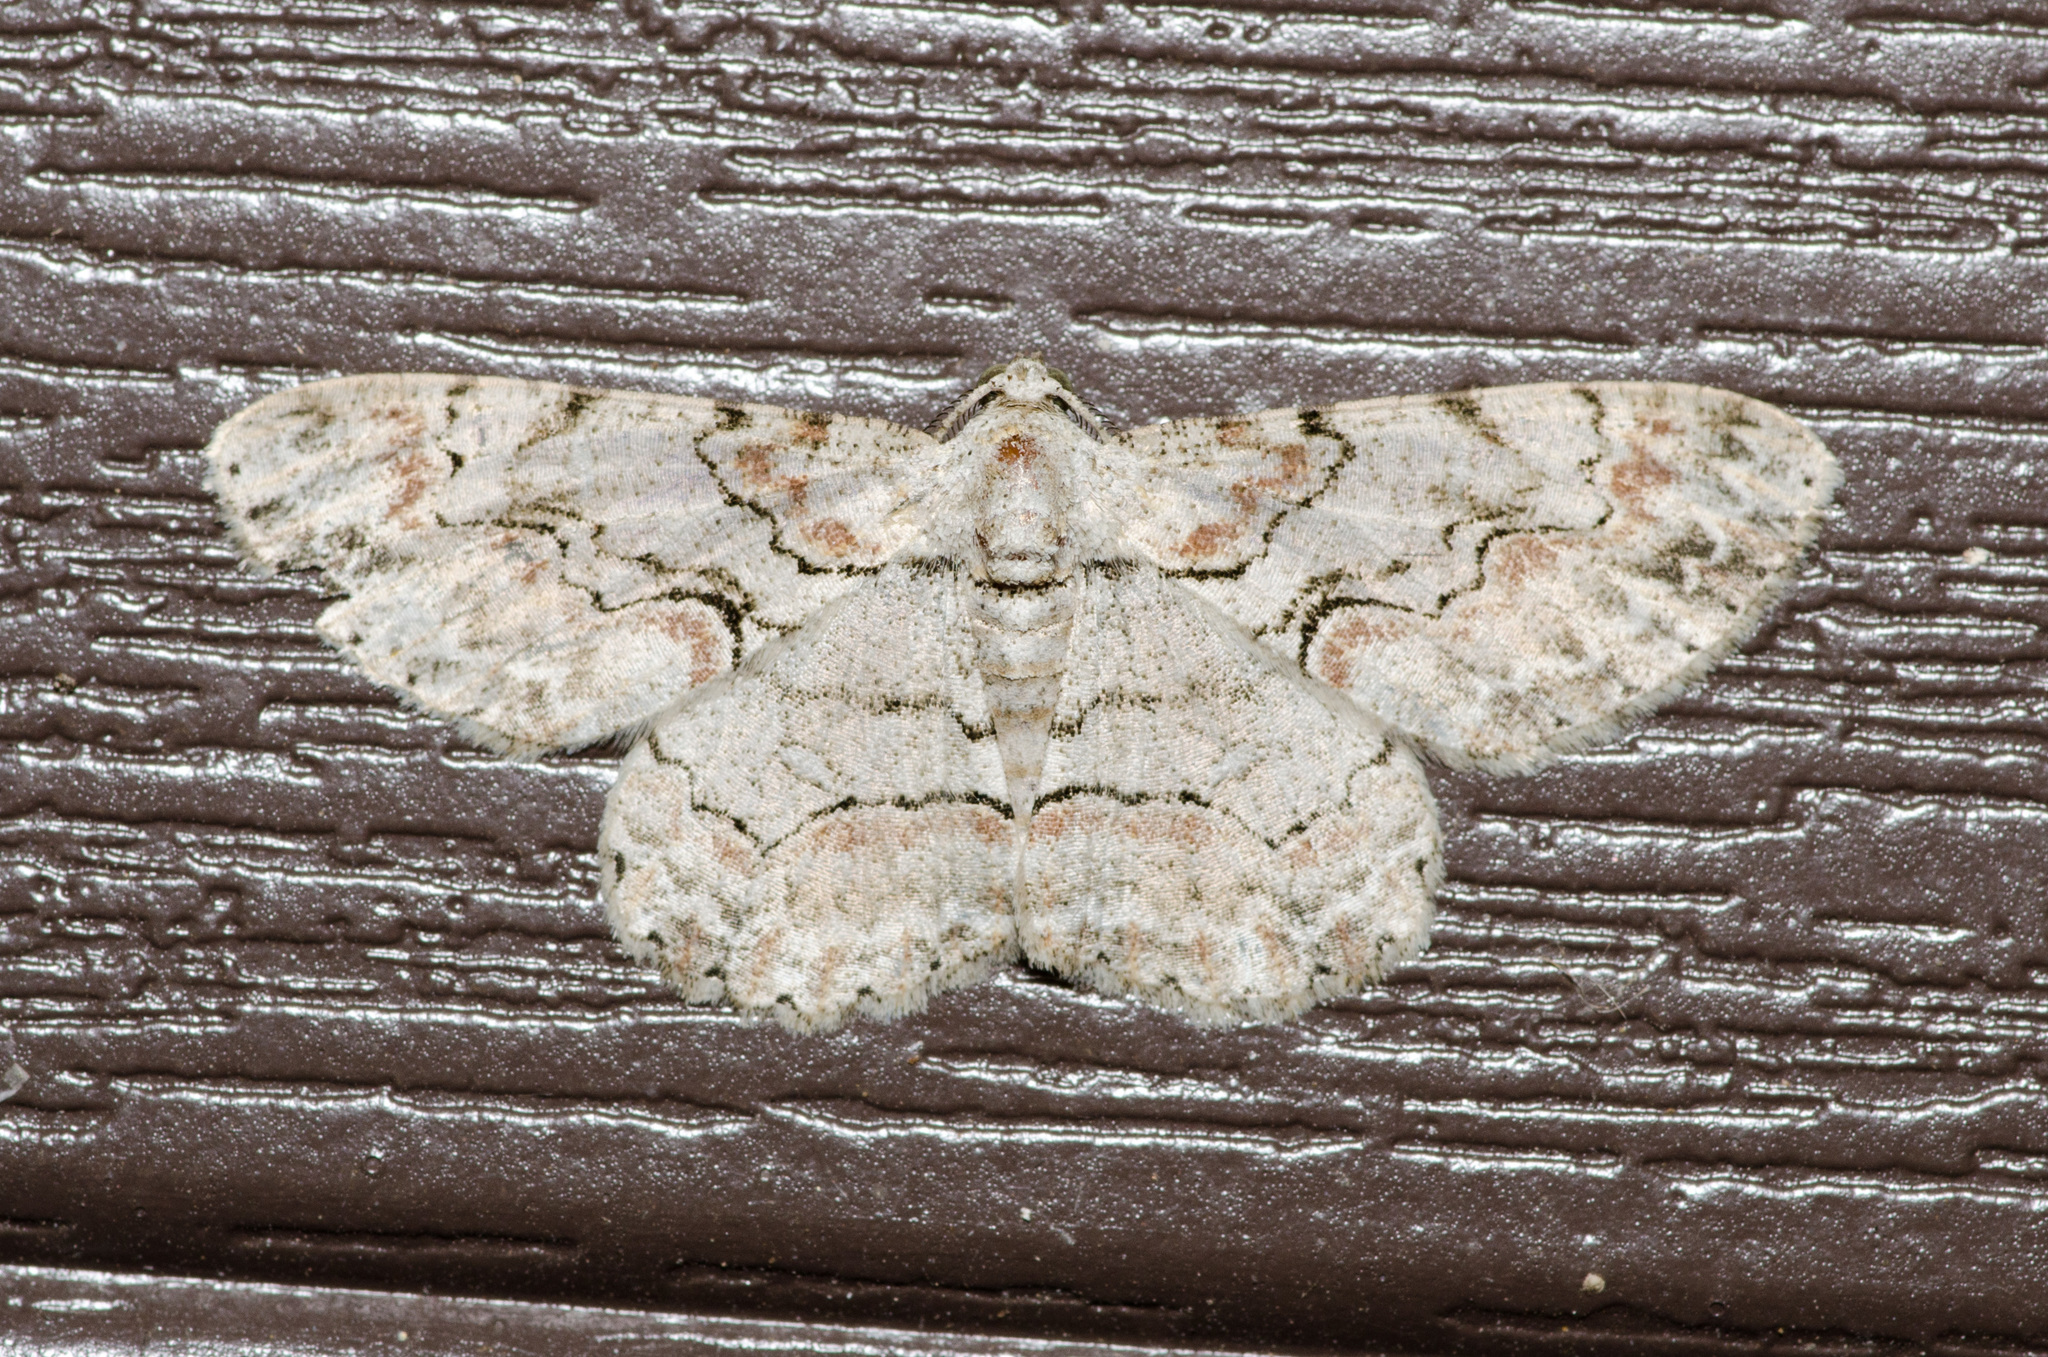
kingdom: Animalia
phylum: Arthropoda
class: Insecta
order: Lepidoptera
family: Geometridae
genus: Iridopsis
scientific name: Iridopsis defectaria
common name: Brown-shaded gray
